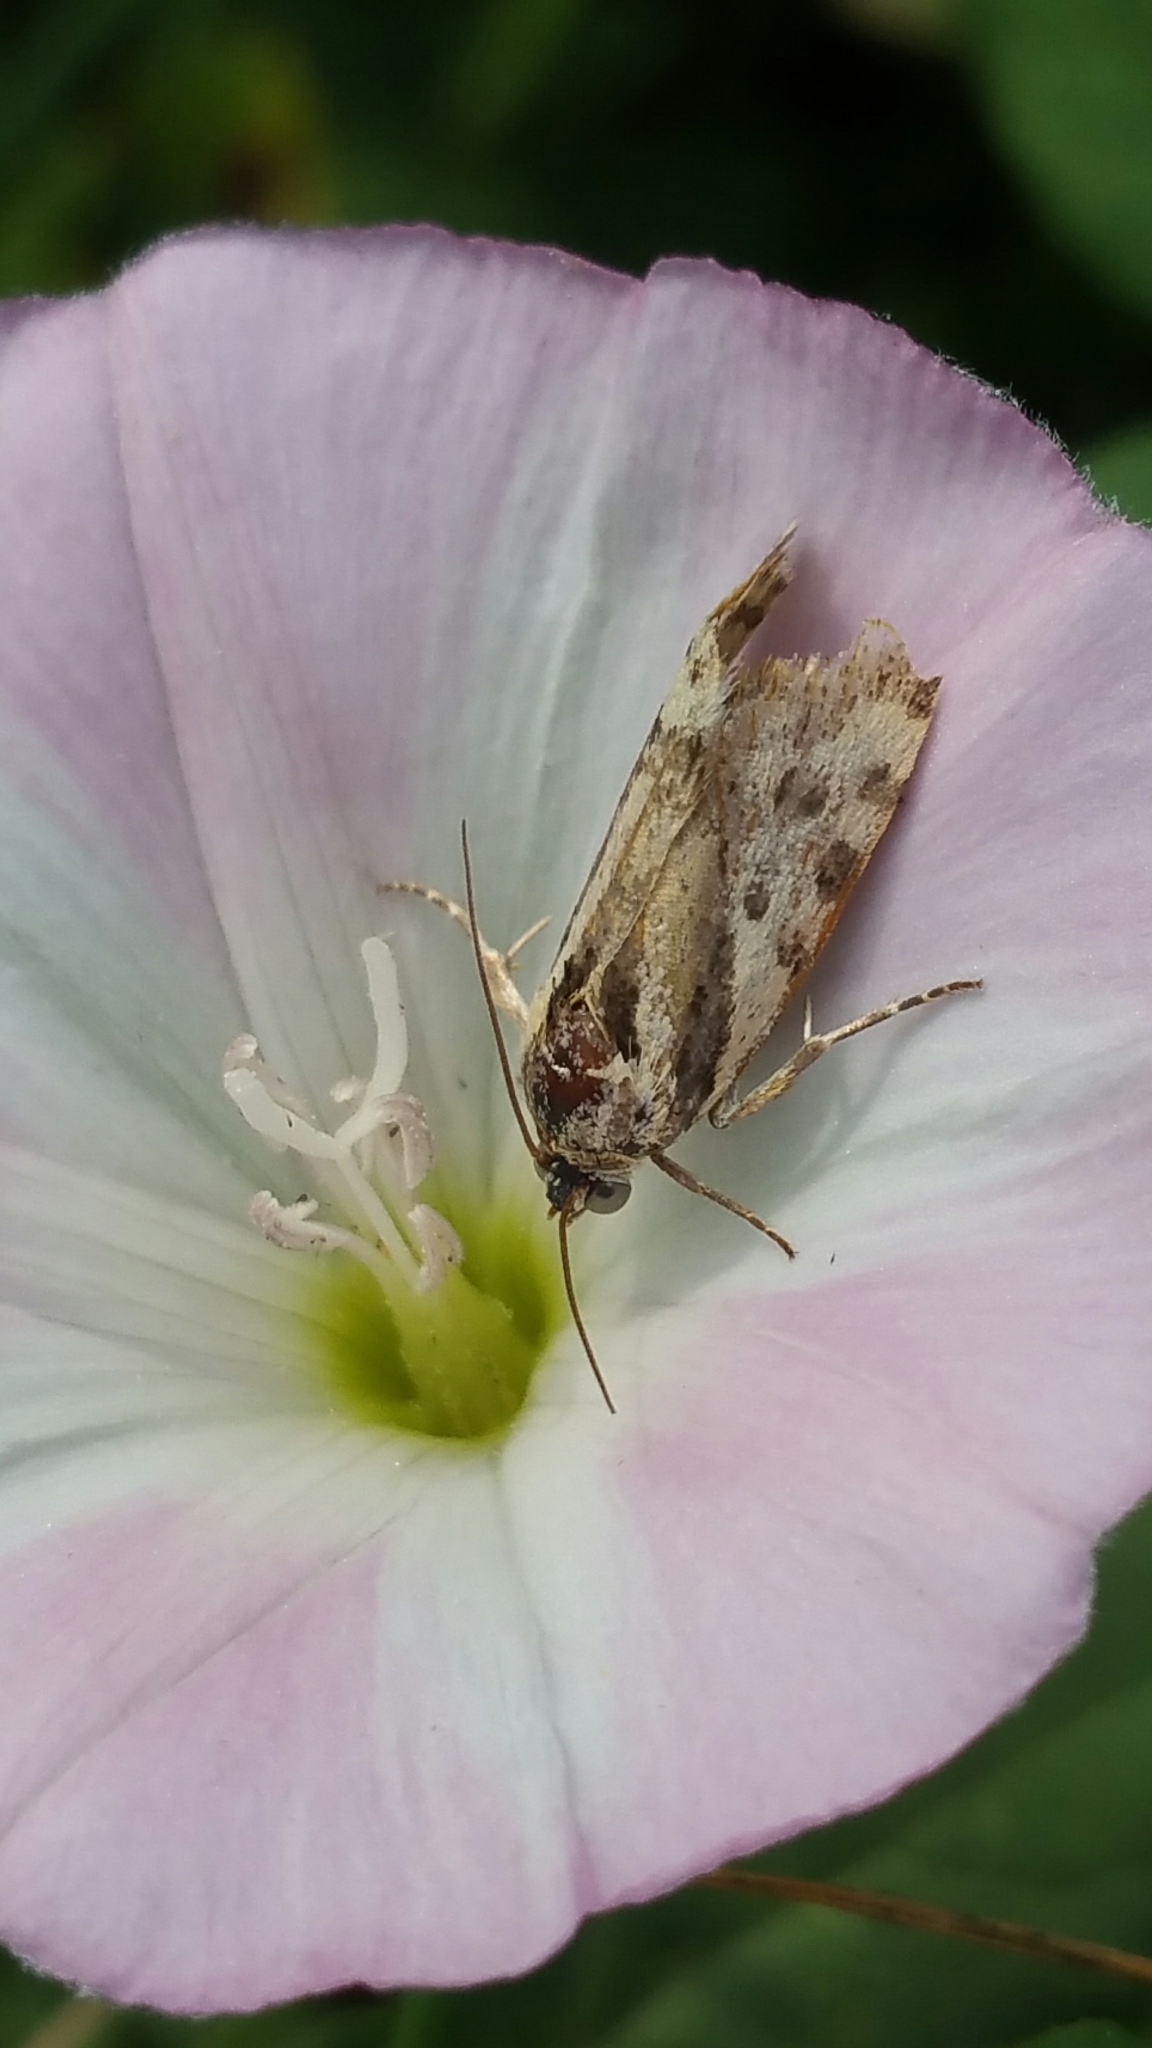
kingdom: Animalia
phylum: Arthropoda
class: Insecta
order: Lepidoptera
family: Noctuidae
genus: Acontia
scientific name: Acontia trabealis
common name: Spotted sulphur
